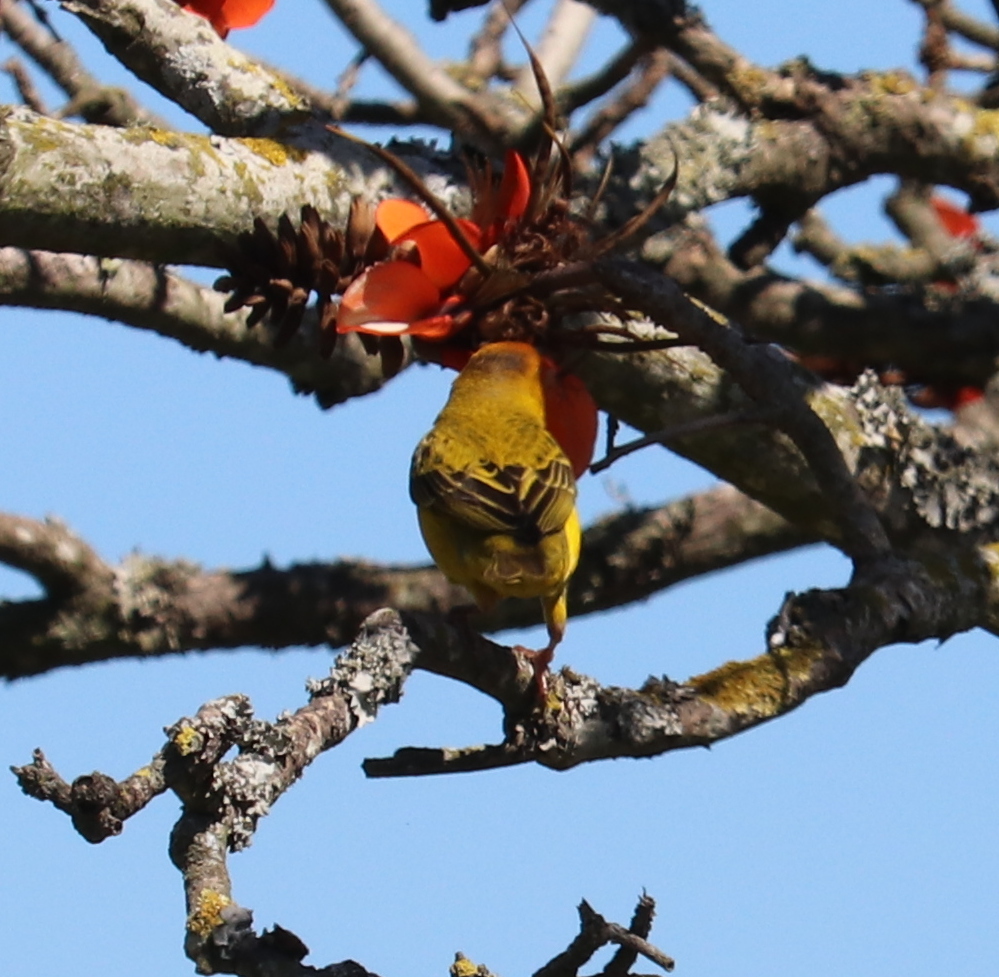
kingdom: Animalia
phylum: Chordata
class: Aves
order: Passeriformes
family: Ploceidae
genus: Ploceus
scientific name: Ploceus capensis
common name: Cape weaver
